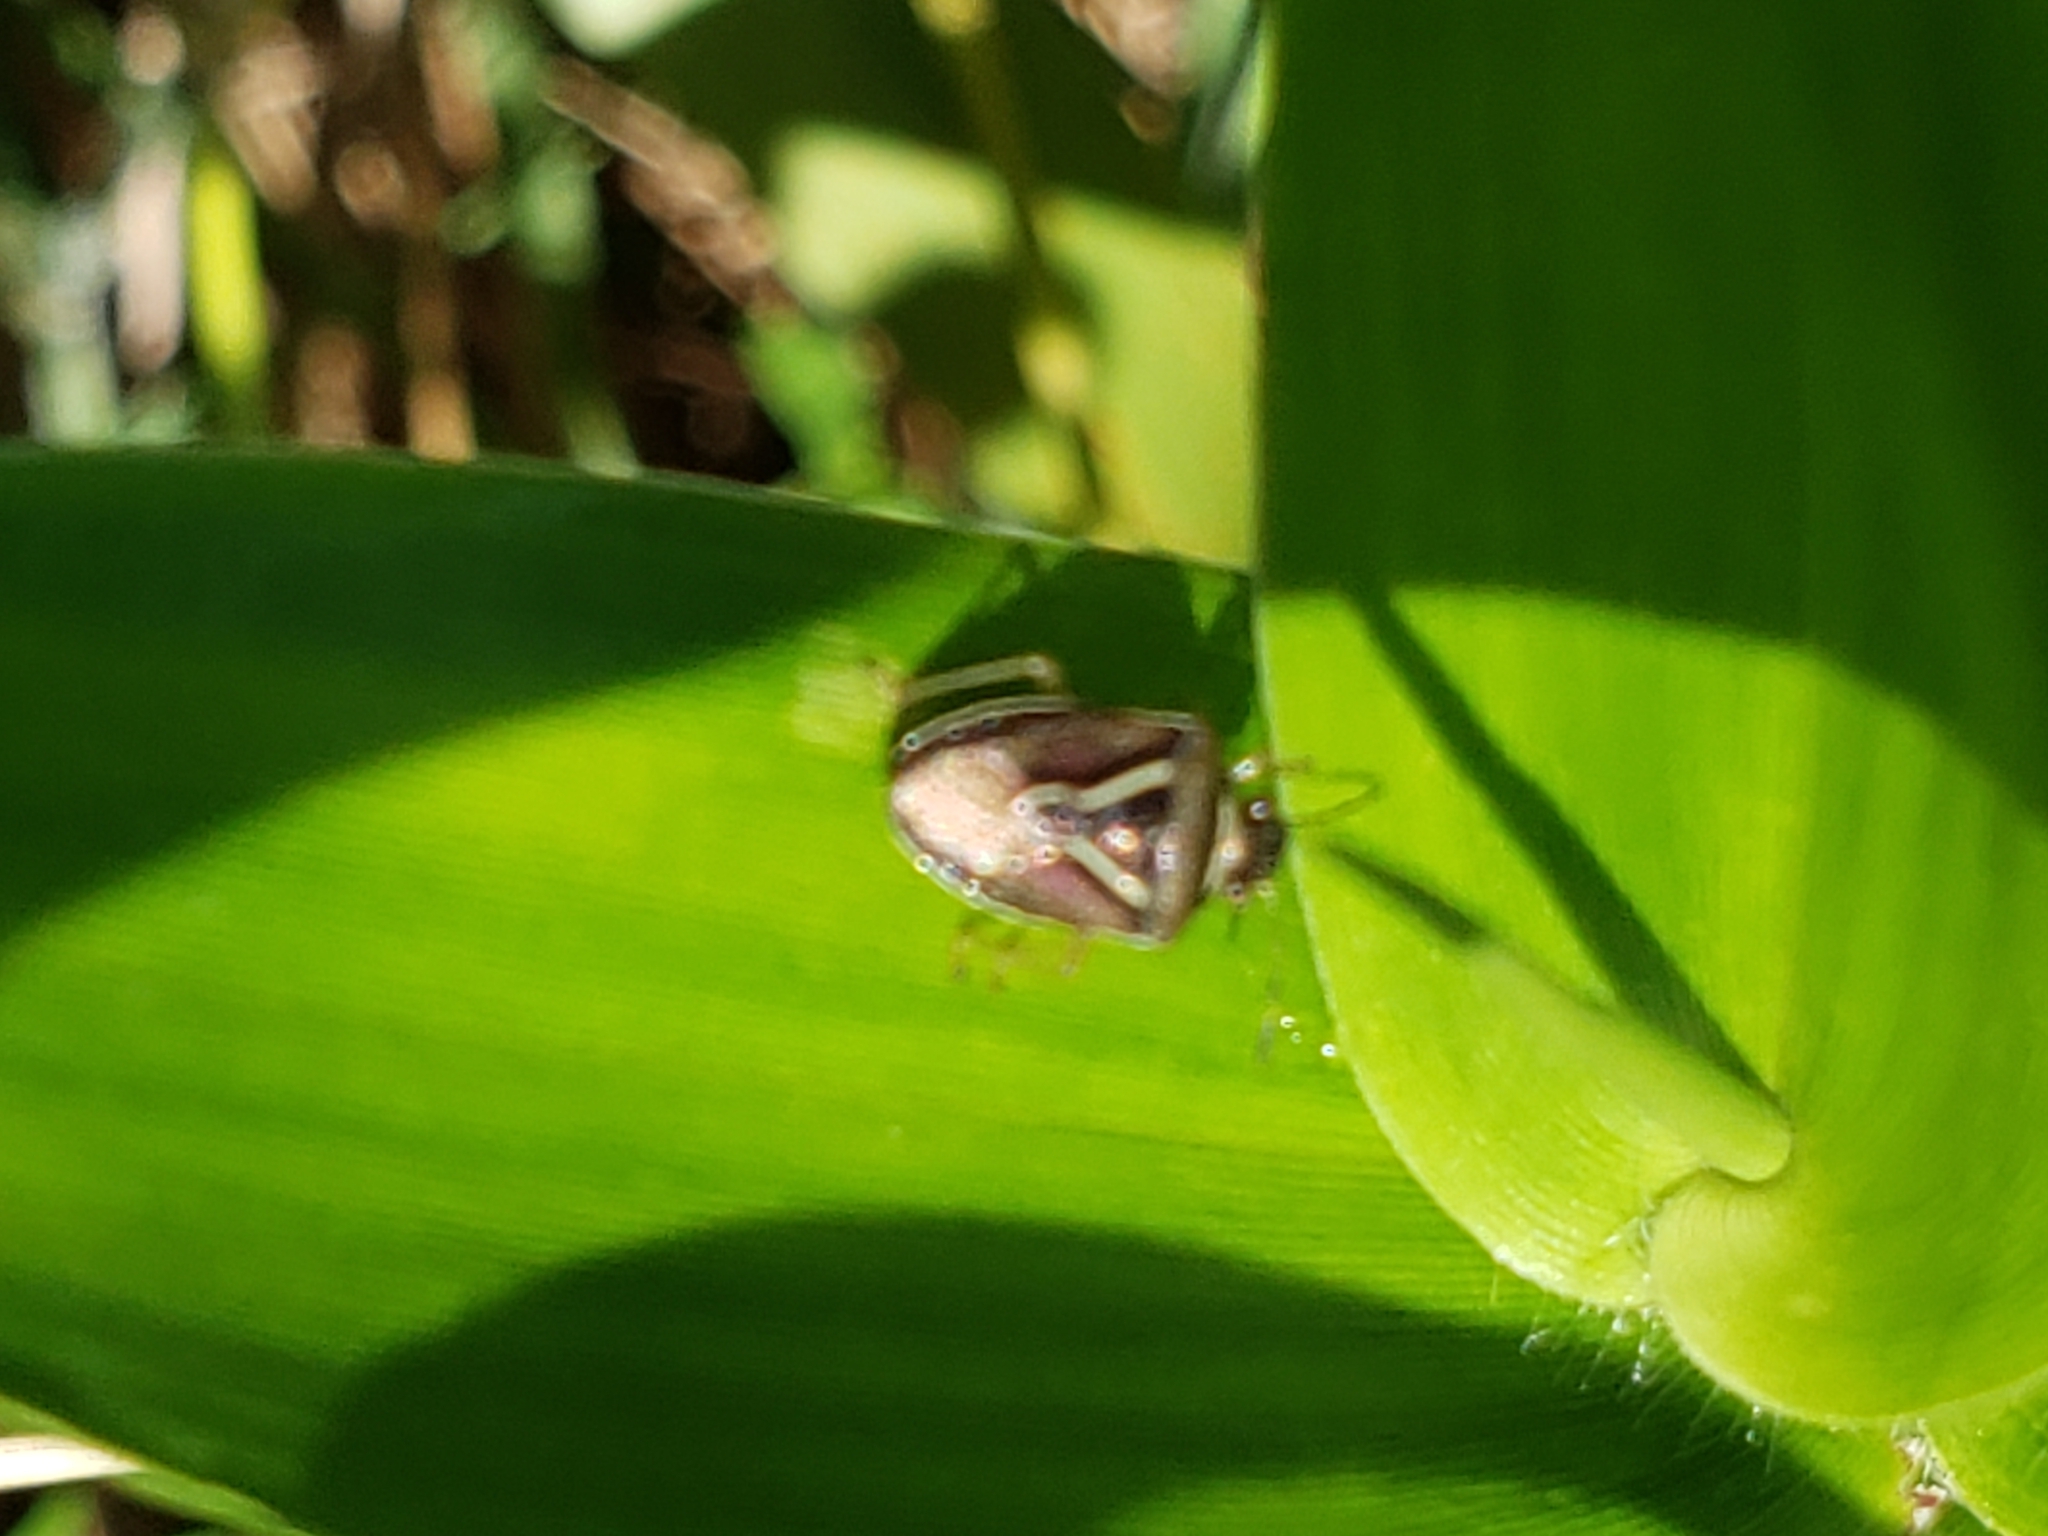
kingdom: Animalia
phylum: Arthropoda
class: Insecta
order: Hemiptera
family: Pentatomidae
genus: Mormidea
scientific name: Mormidea lugens
